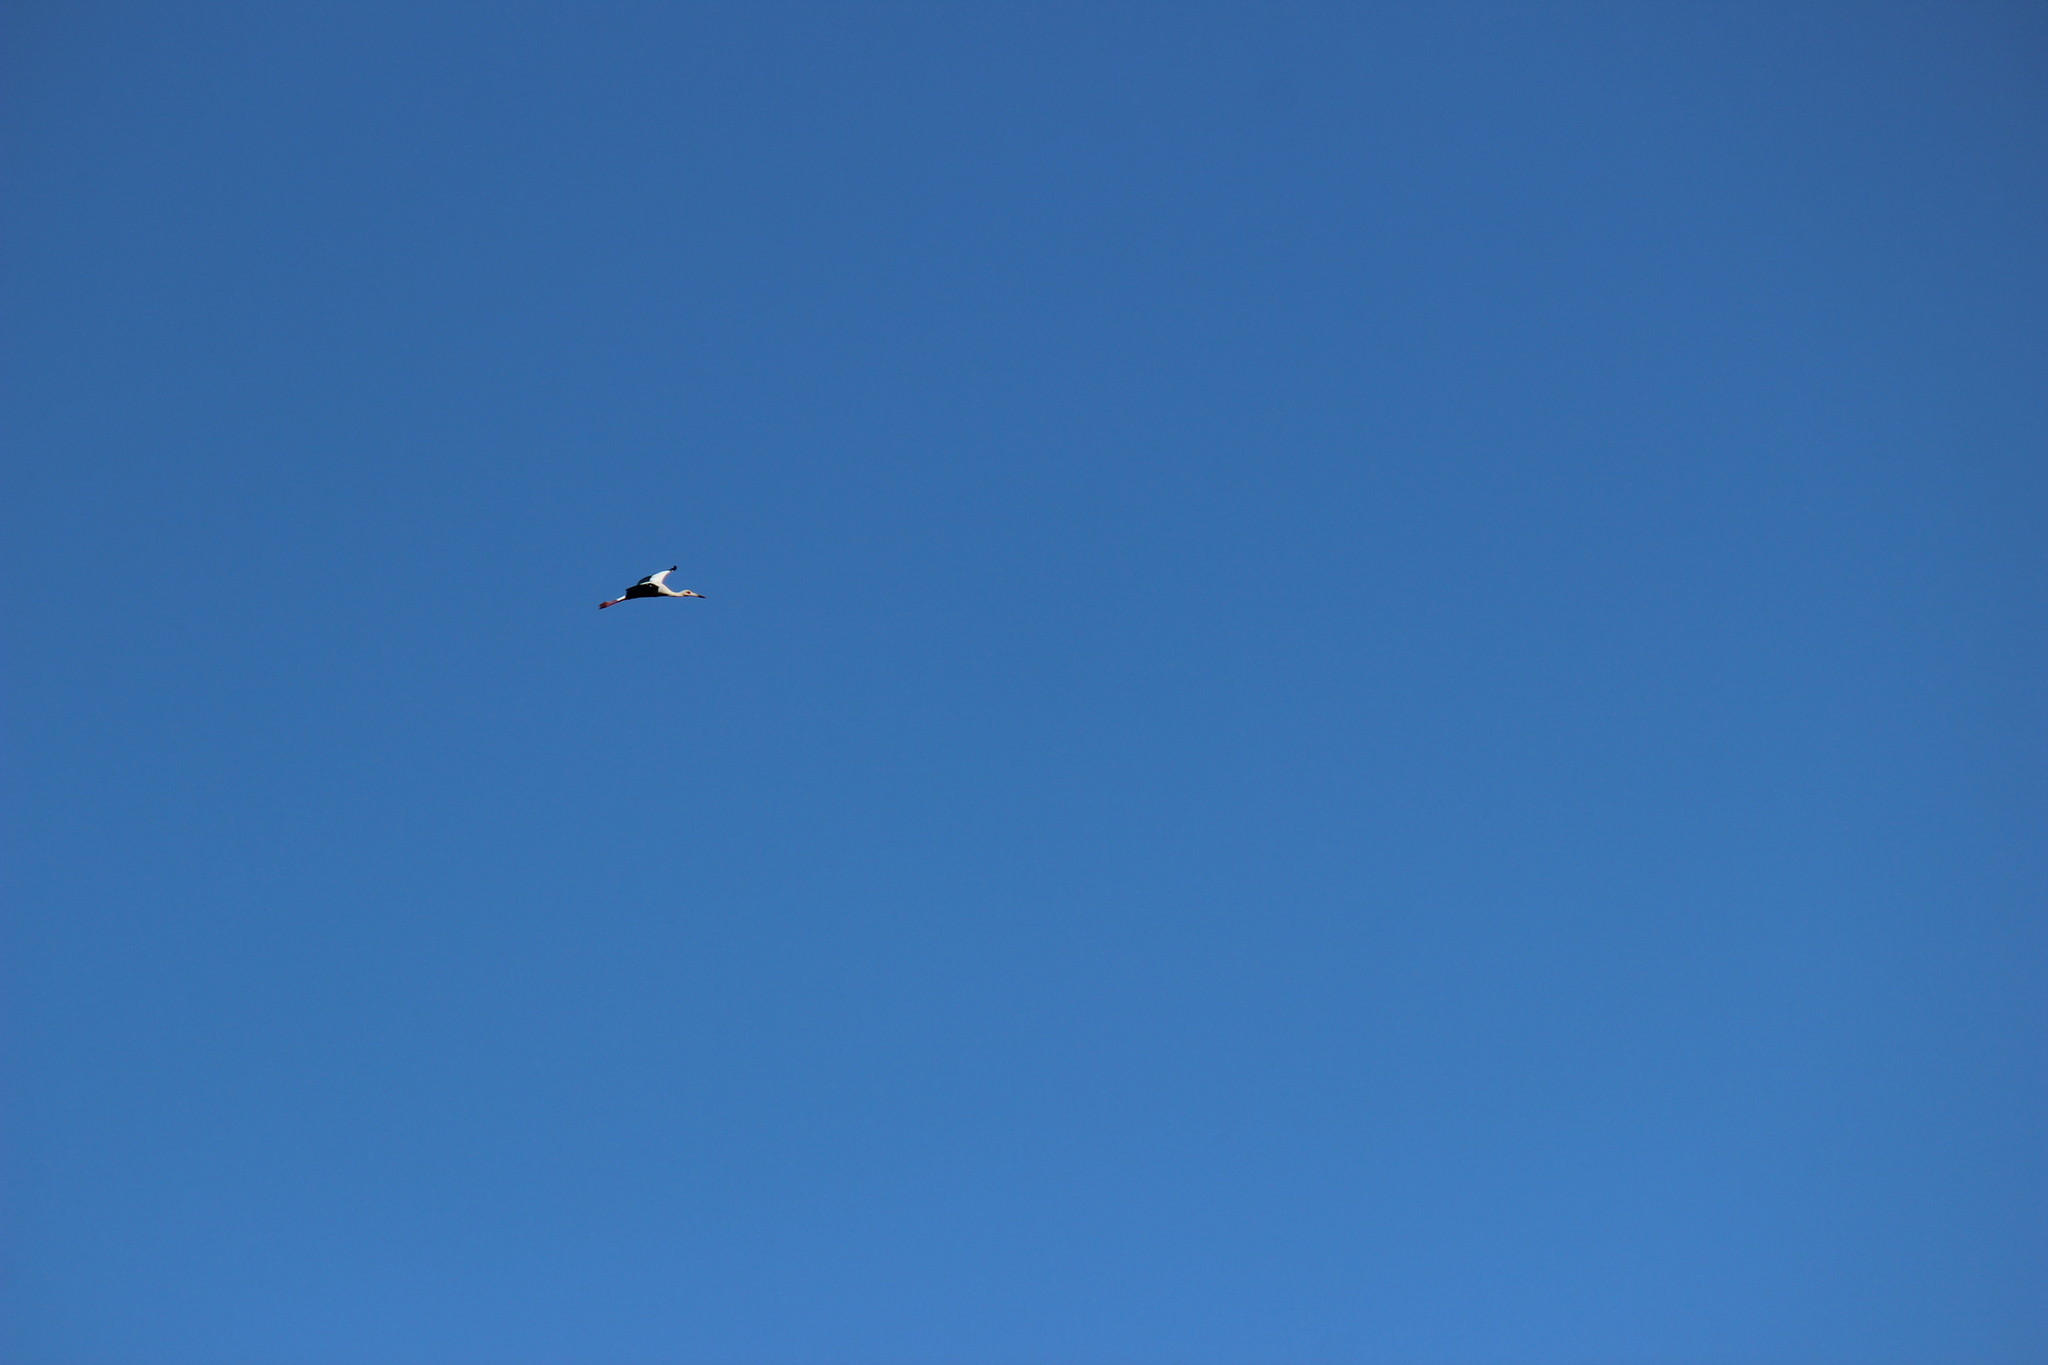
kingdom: Animalia
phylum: Chordata
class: Aves
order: Ciconiiformes
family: Ciconiidae
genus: Ciconia
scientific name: Ciconia maguari
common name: Maguari stork
